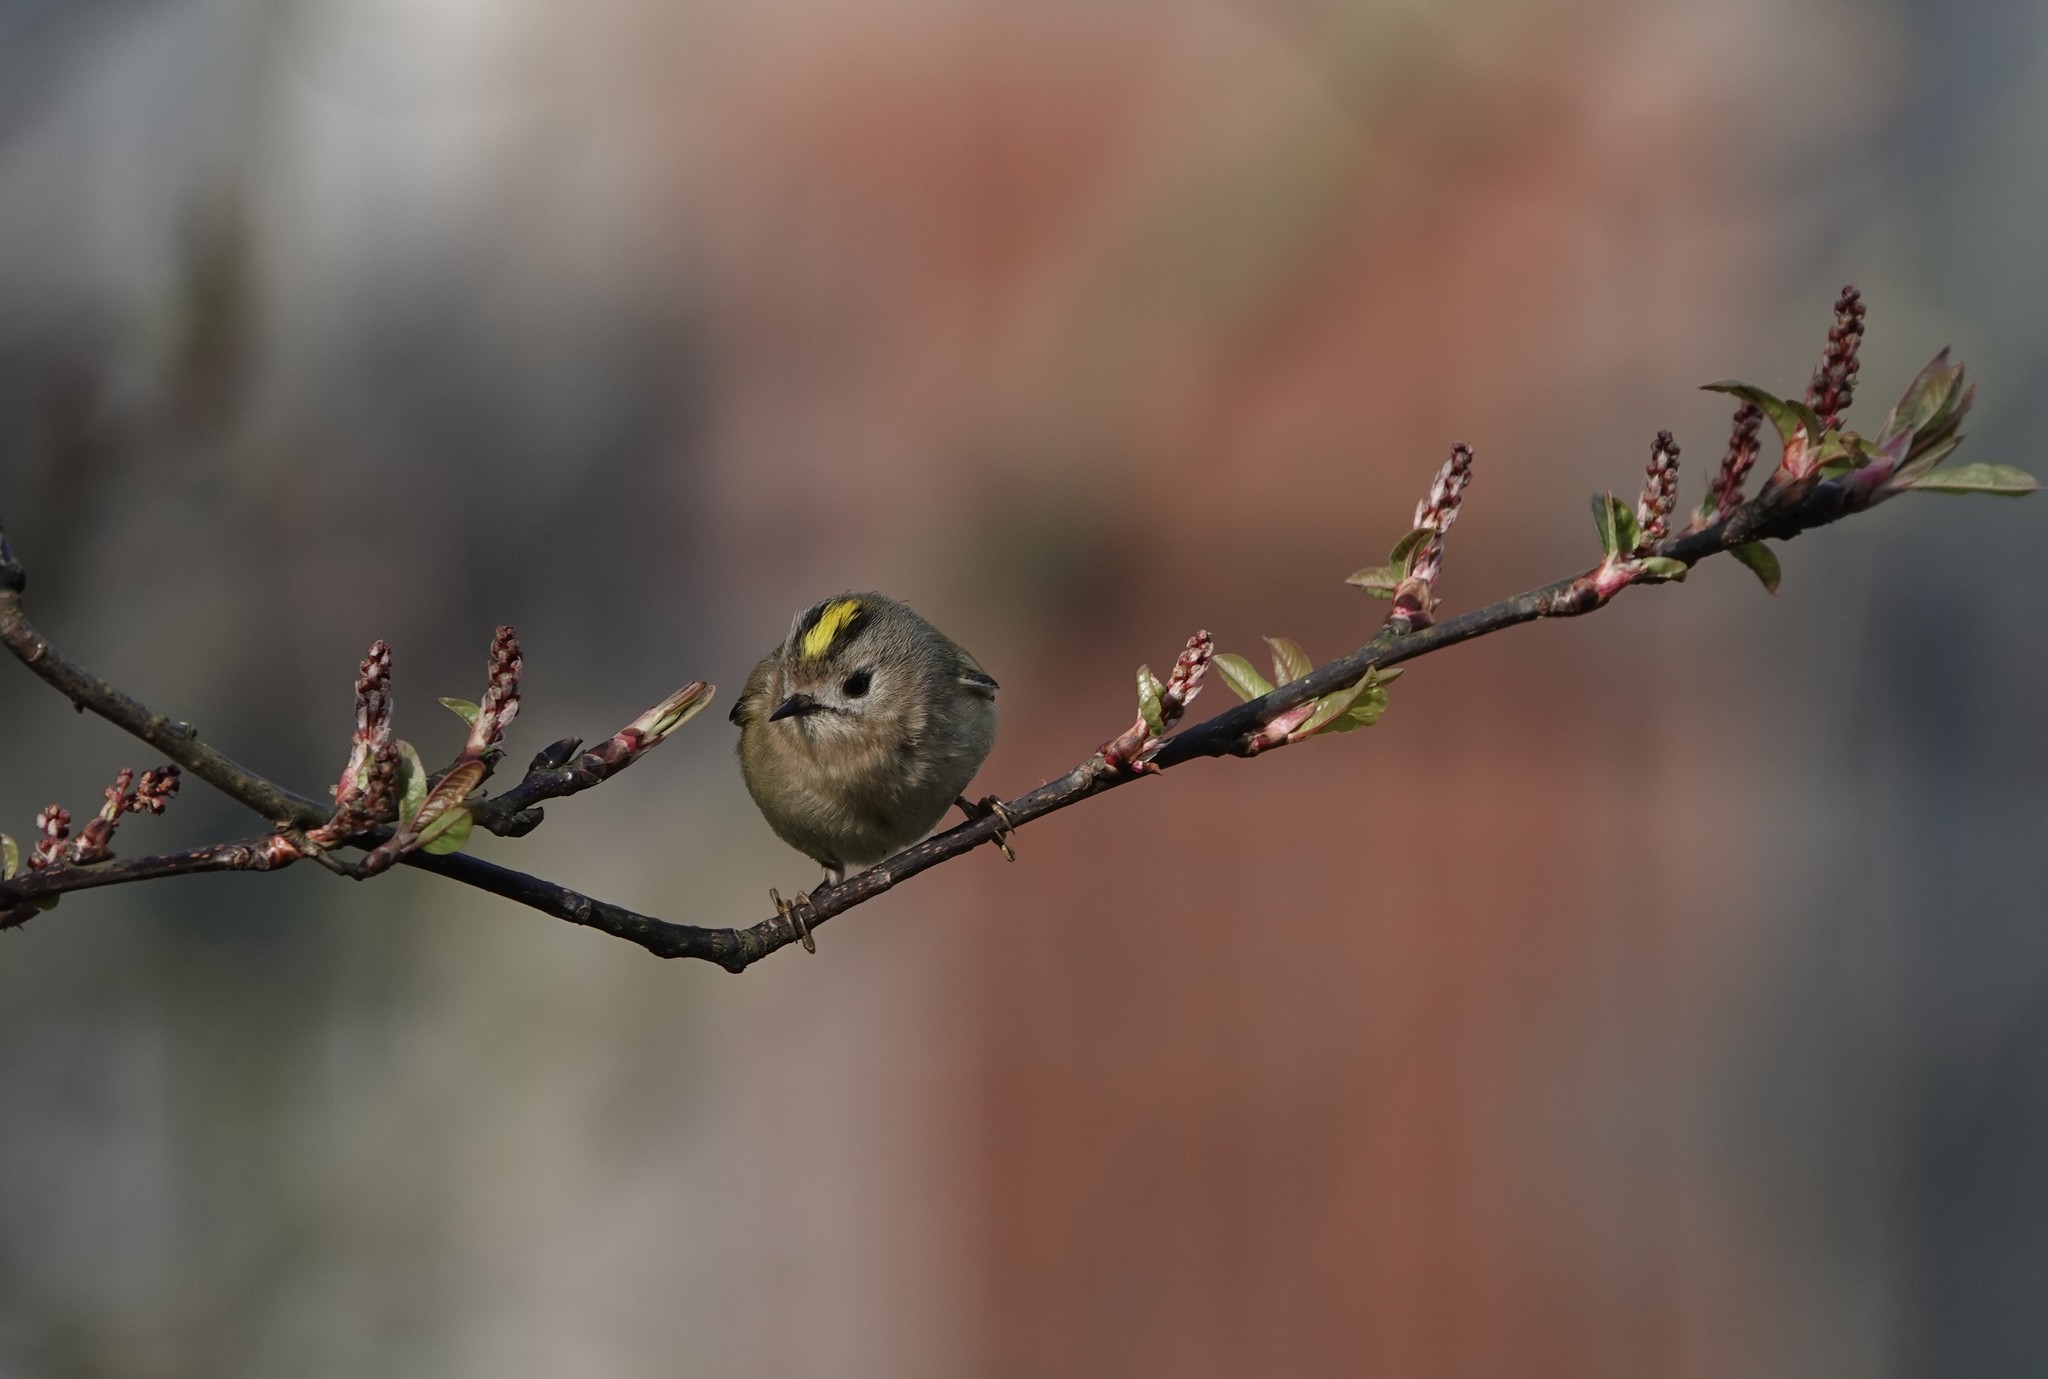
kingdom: Animalia
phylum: Chordata
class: Aves
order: Passeriformes
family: Regulidae
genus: Regulus
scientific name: Regulus regulus
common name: Goldcrest
